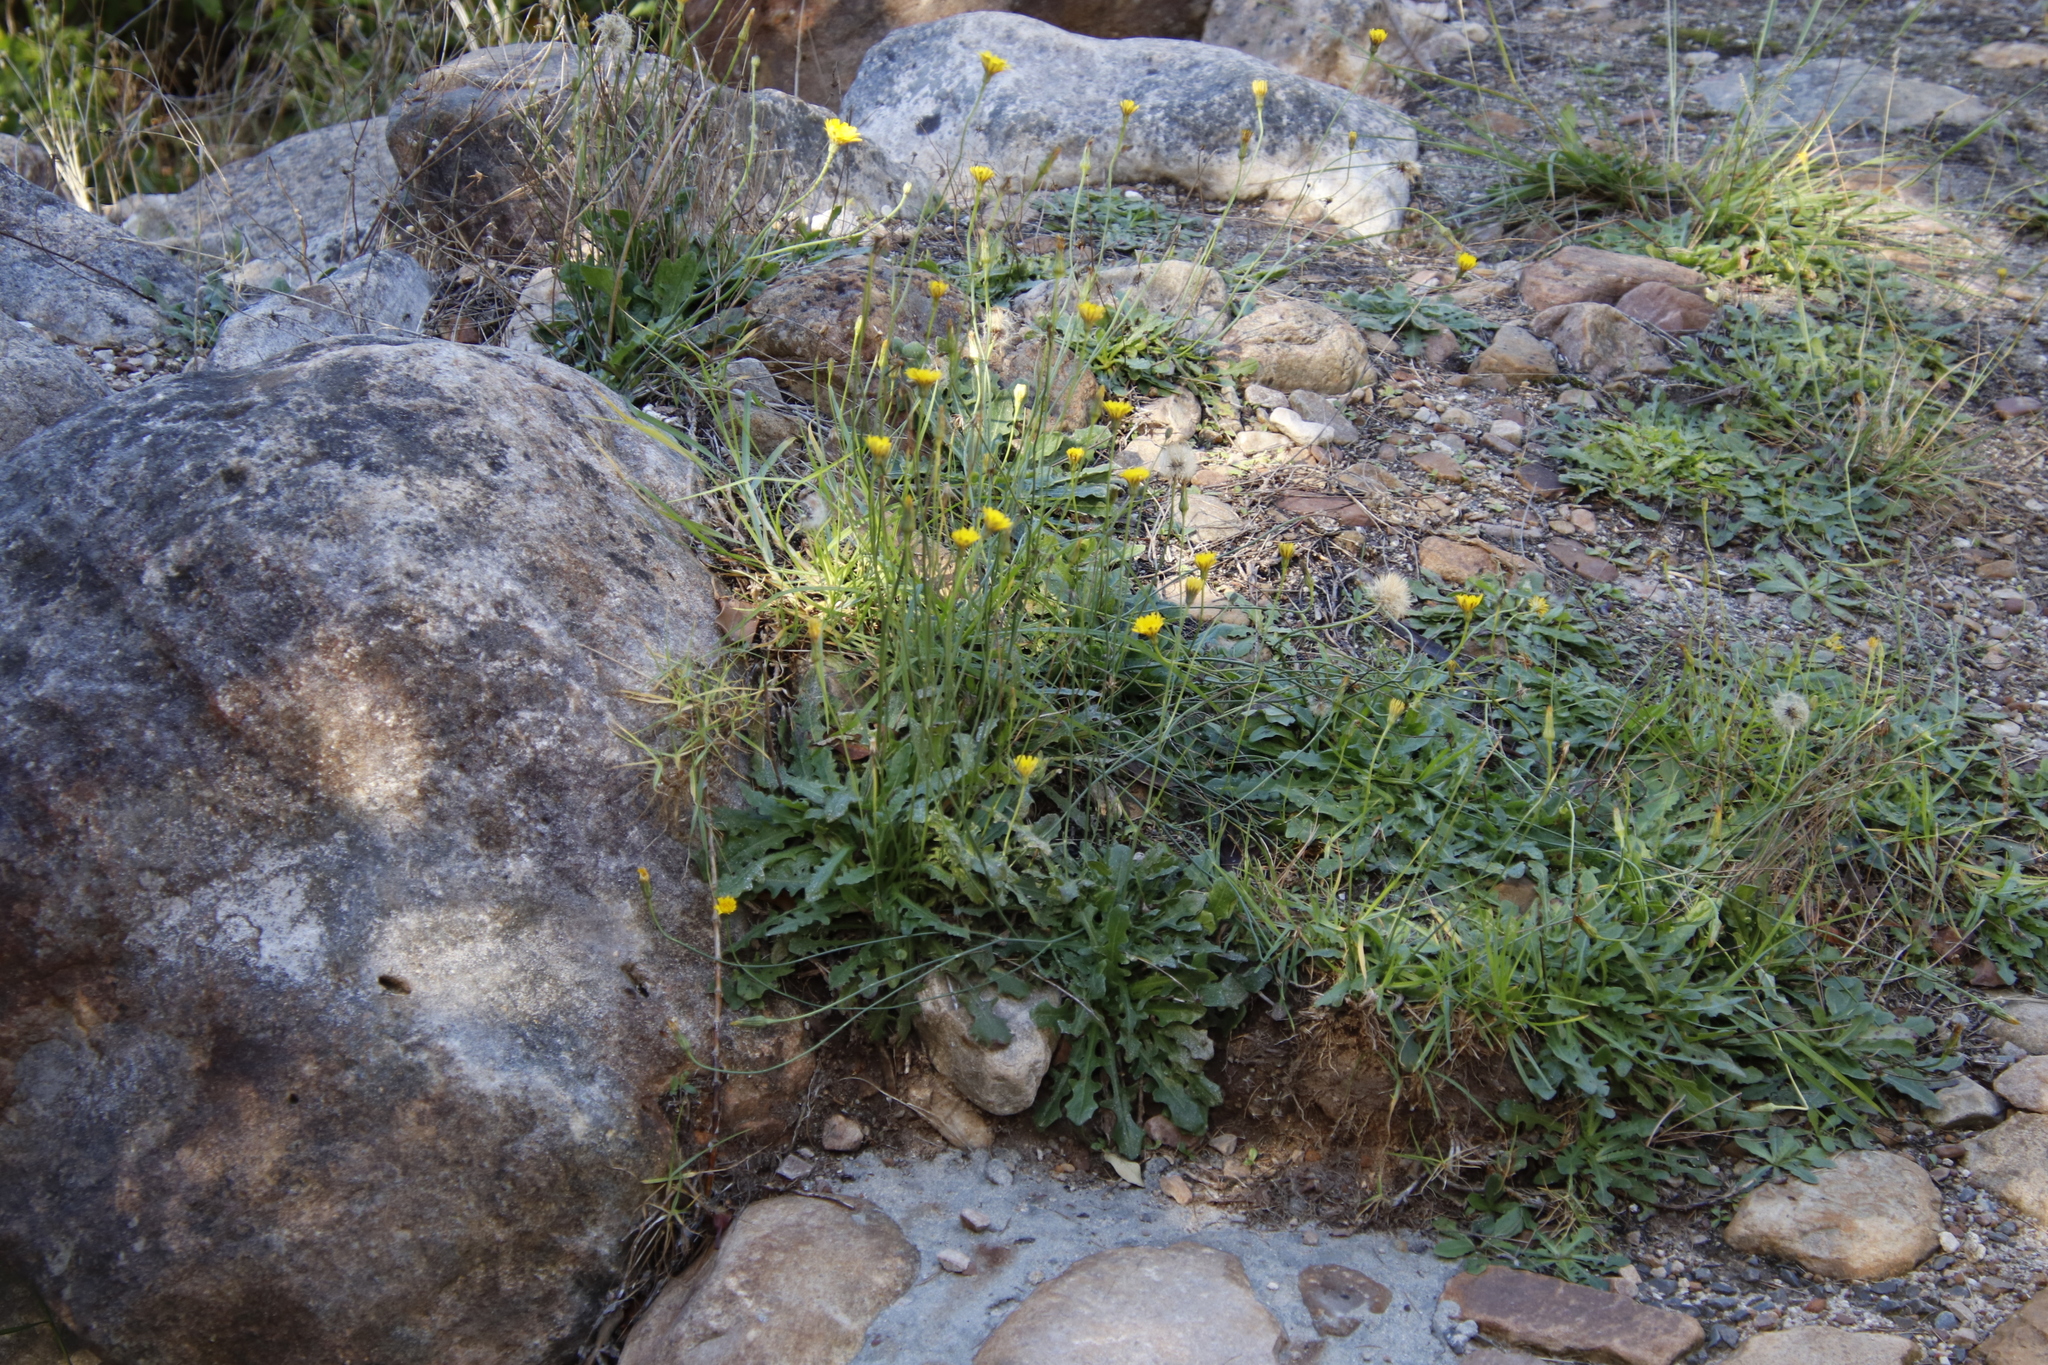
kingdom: Plantae
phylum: Tracheophyta
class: Magnoliopsida
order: Asterales
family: Asteraceae
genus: Hypochaeris
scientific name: Hypochaeris radicata
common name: Flatweed
